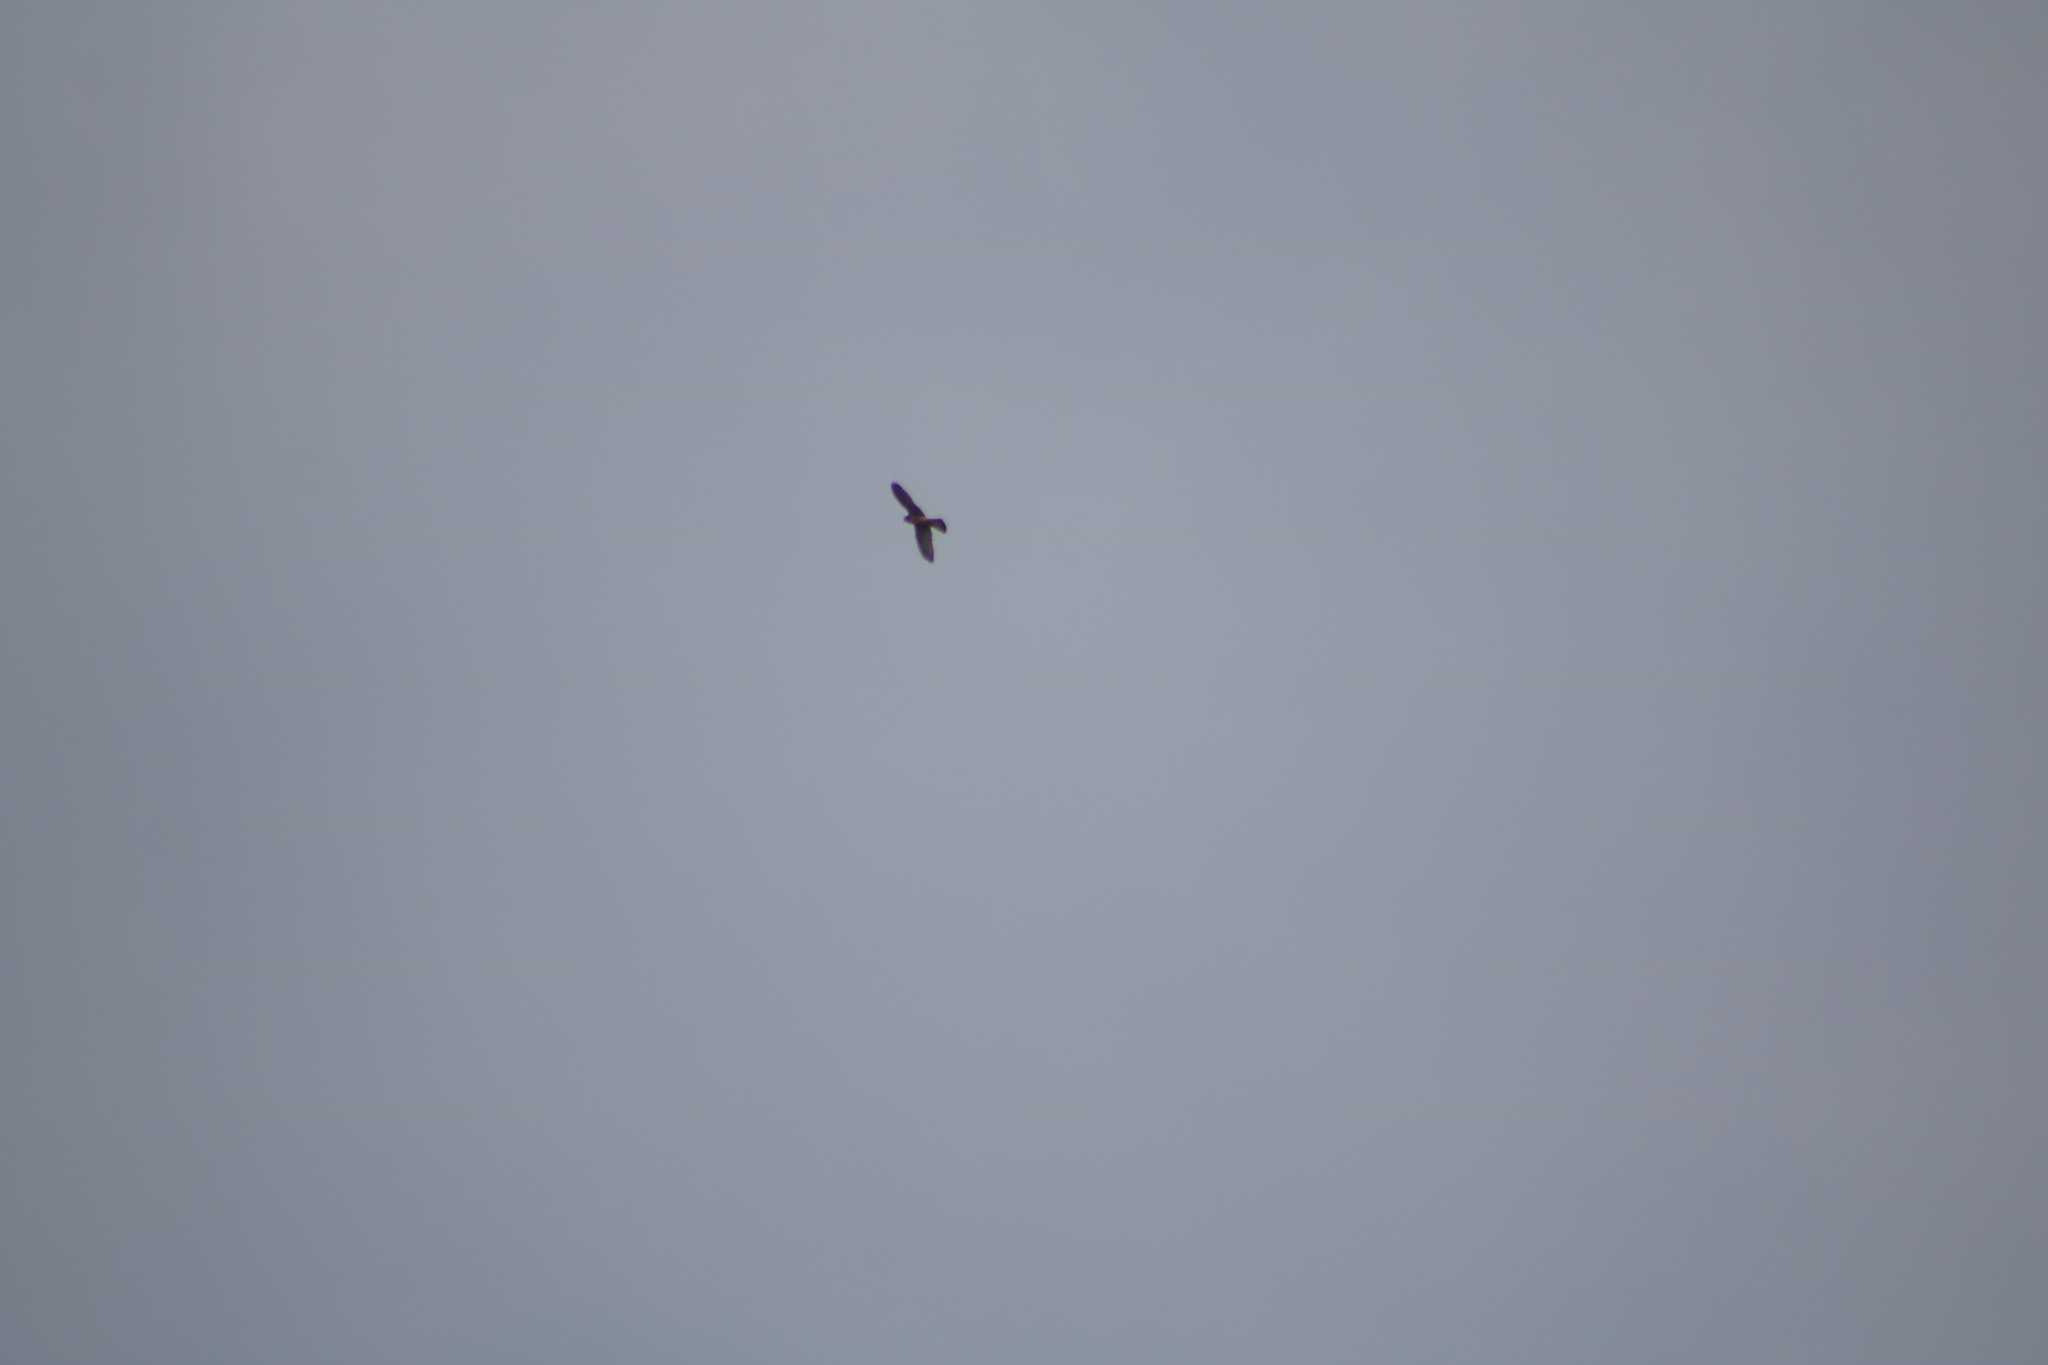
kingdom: Animalia
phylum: Chordata
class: Aves
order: Falconiformes
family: Falconidae
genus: Falco
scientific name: Falco tinnunculus
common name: Common kestrel
